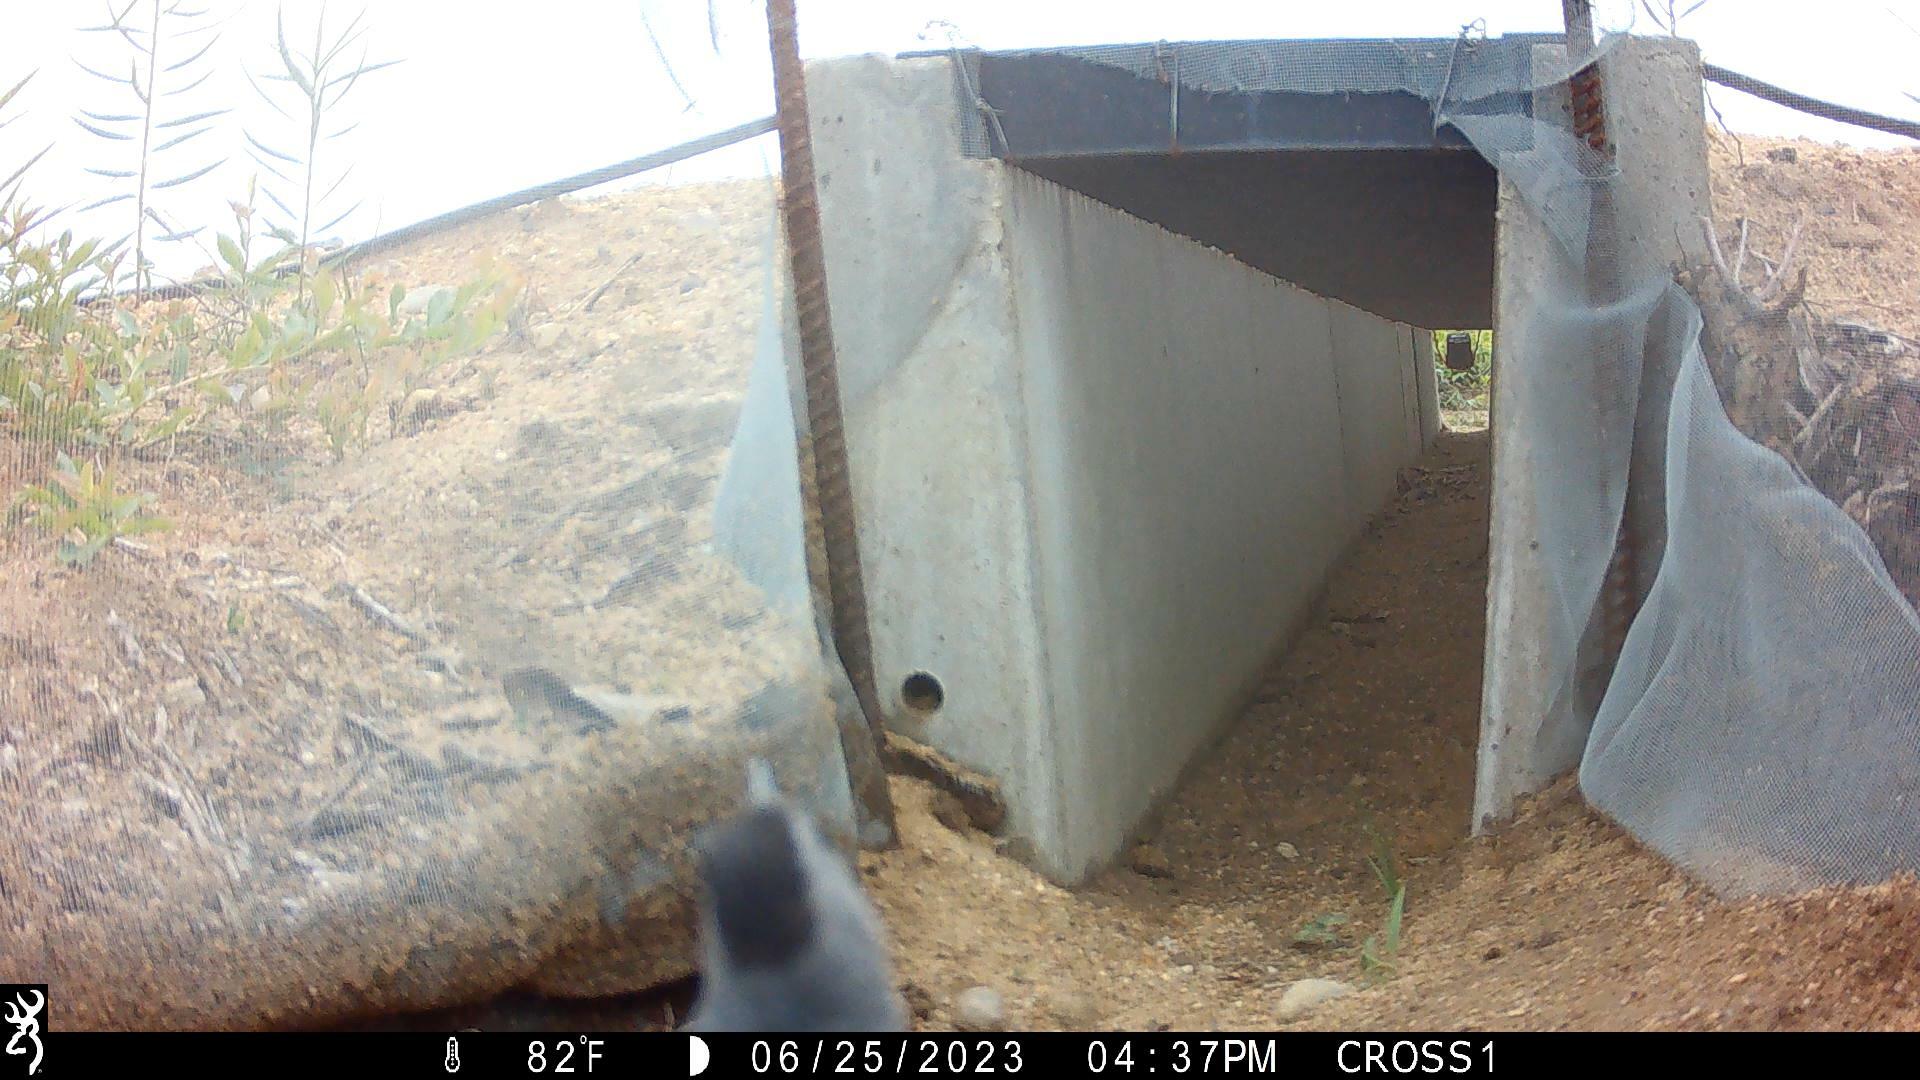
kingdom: Animalia
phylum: Chordata
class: Aves
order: Passeriformes
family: Sittidae
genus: Sitta
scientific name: Sitta carolinensis
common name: White-breasted nuthatch
